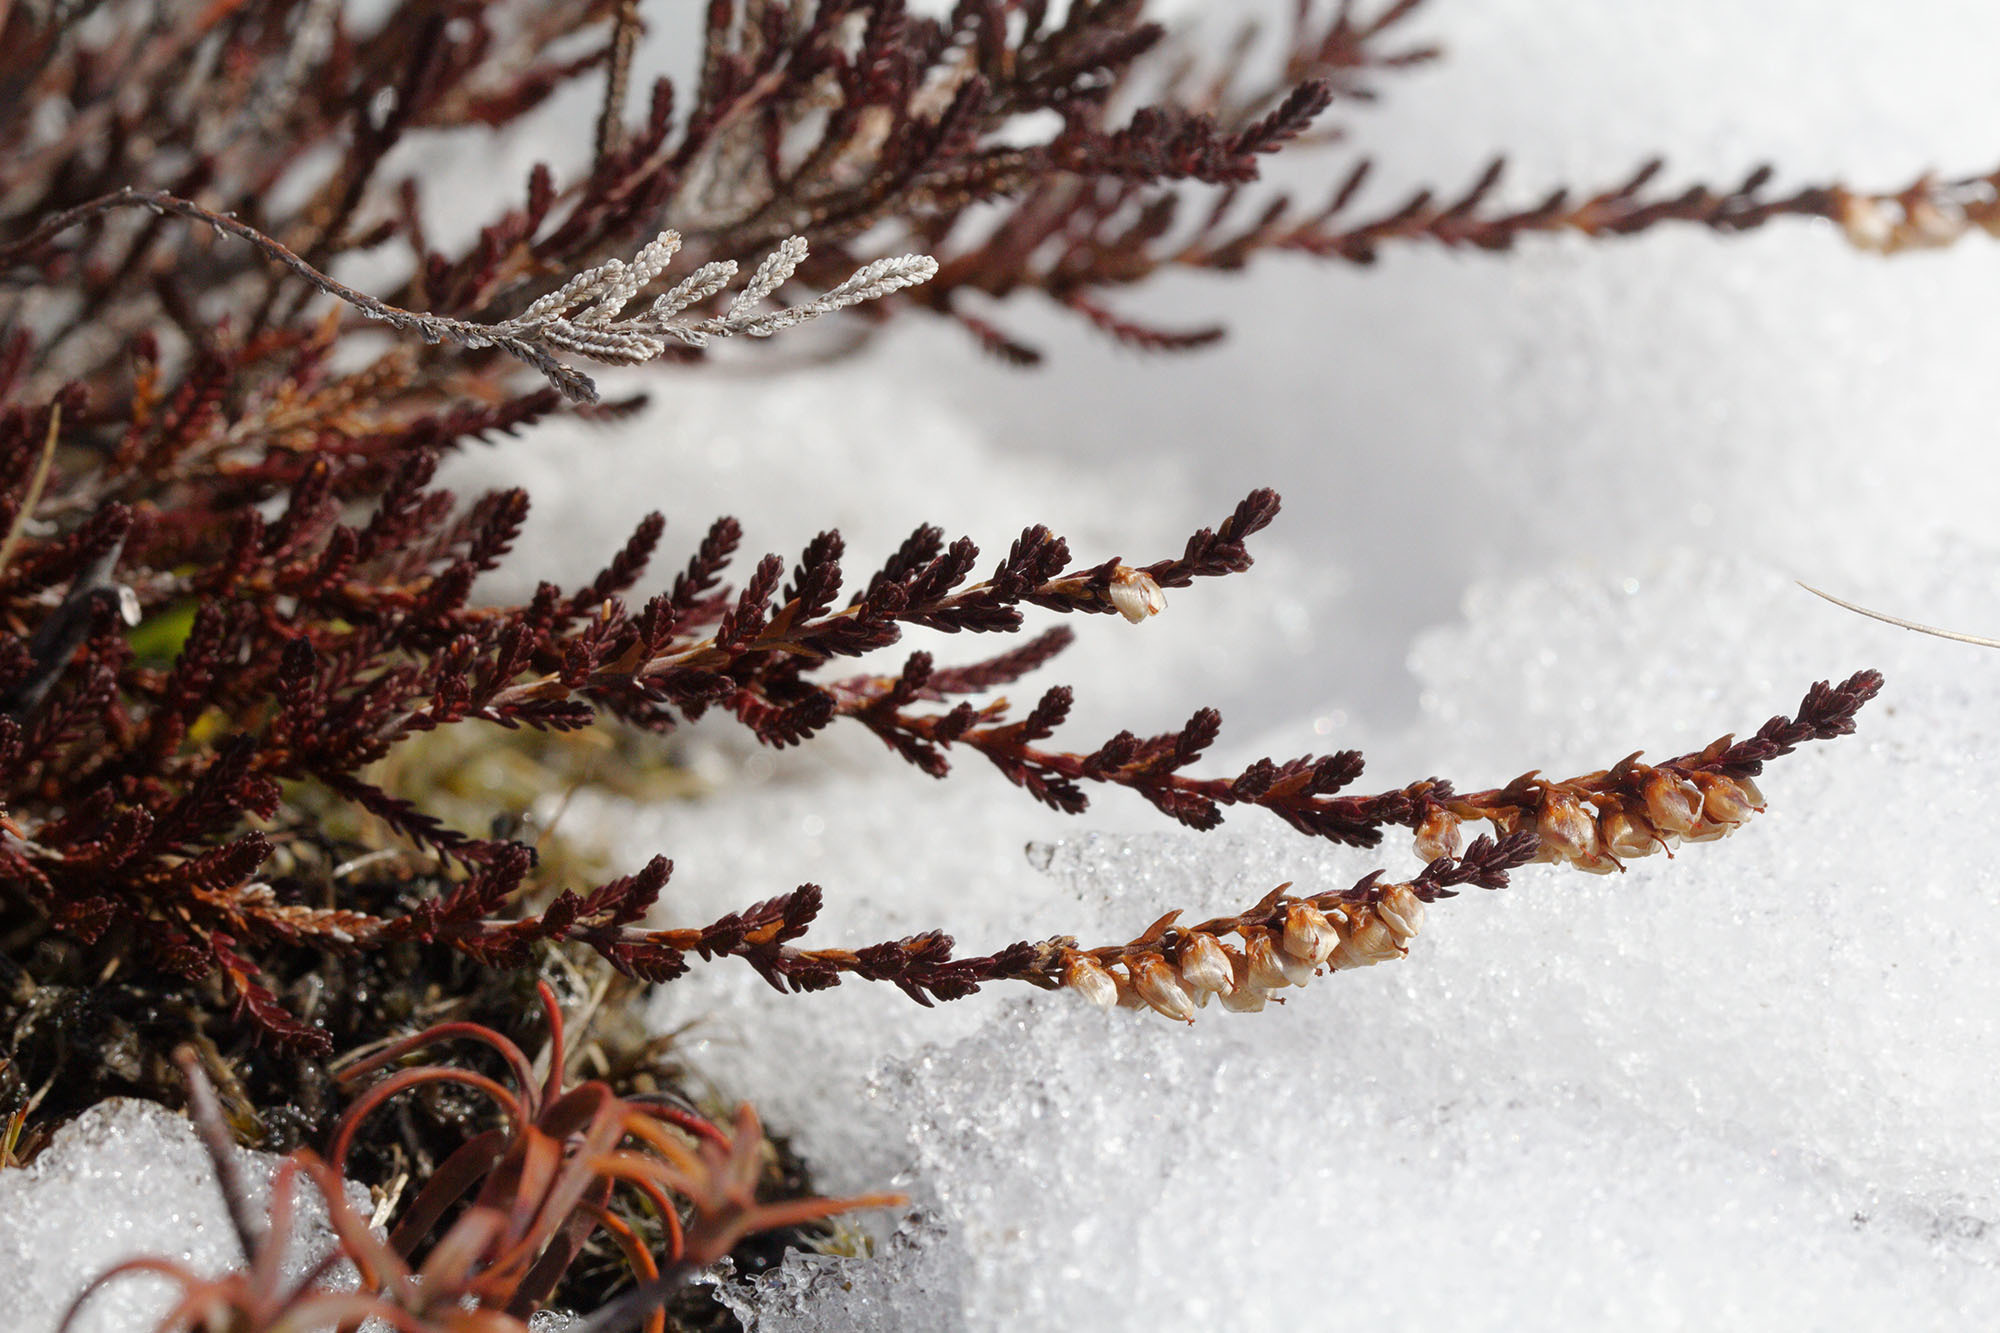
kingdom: Plantae
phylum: Tracheophyta
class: Magnoliopsida
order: Ericales
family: Ericaceae
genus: Calluna
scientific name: Calluna vulgaris
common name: Heather
